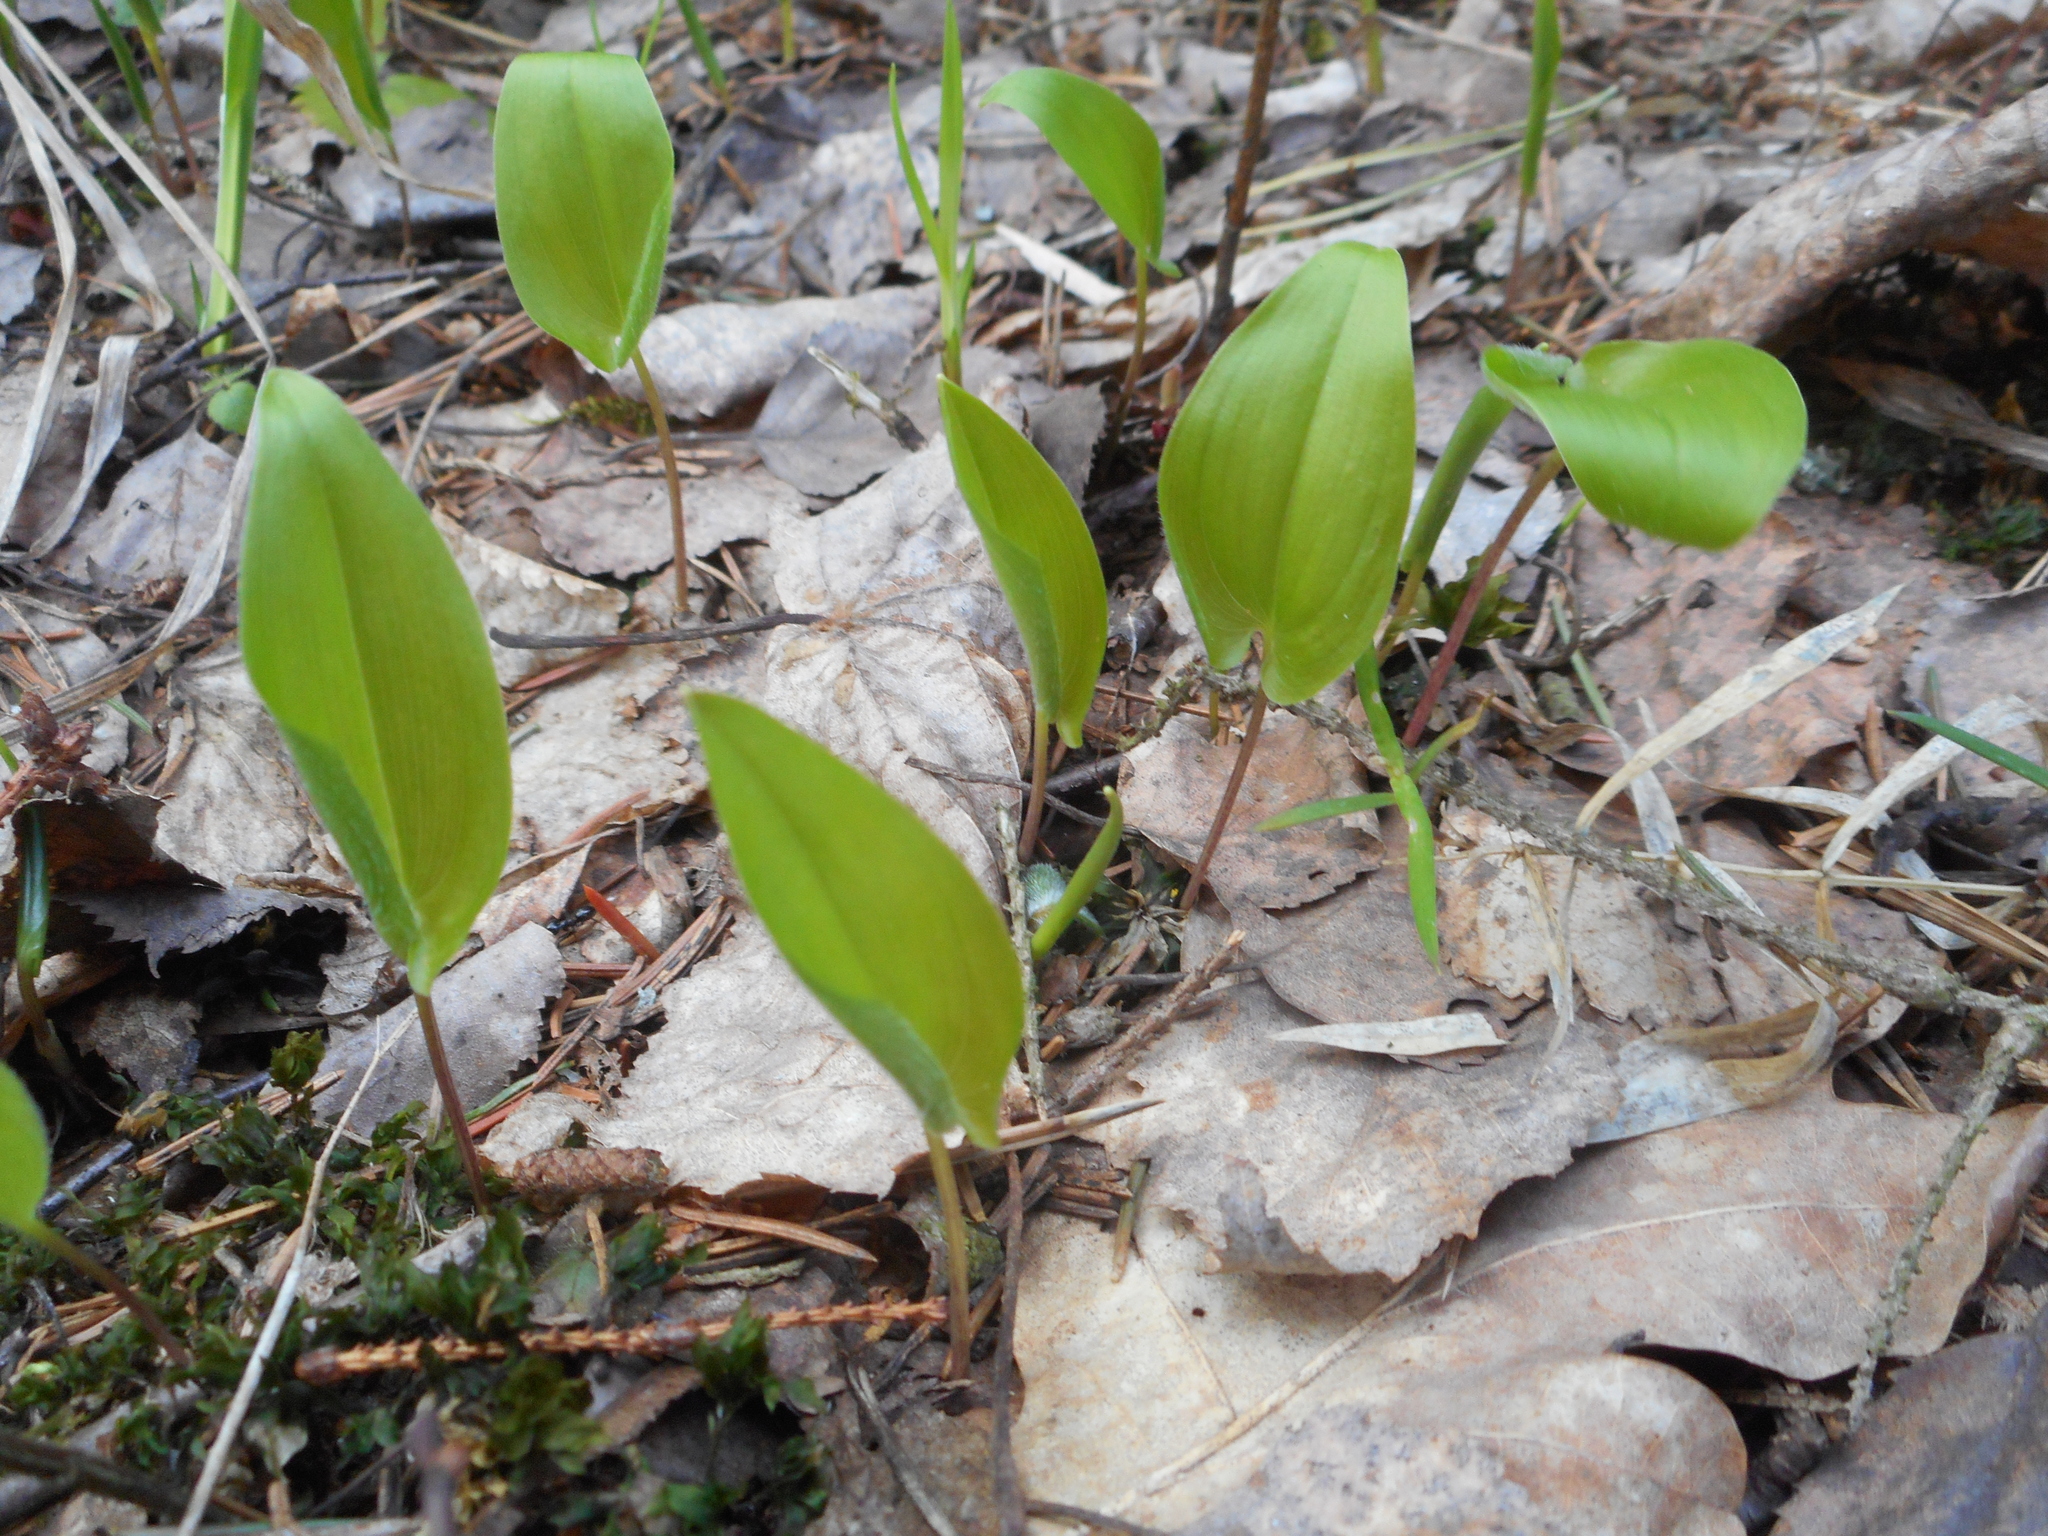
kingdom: Plantae
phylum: Tracheophyta
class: Liliopsida
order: Asparagales
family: Asparagaceae
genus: Maianthemum
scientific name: Maianthemum bifolium
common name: May lily
